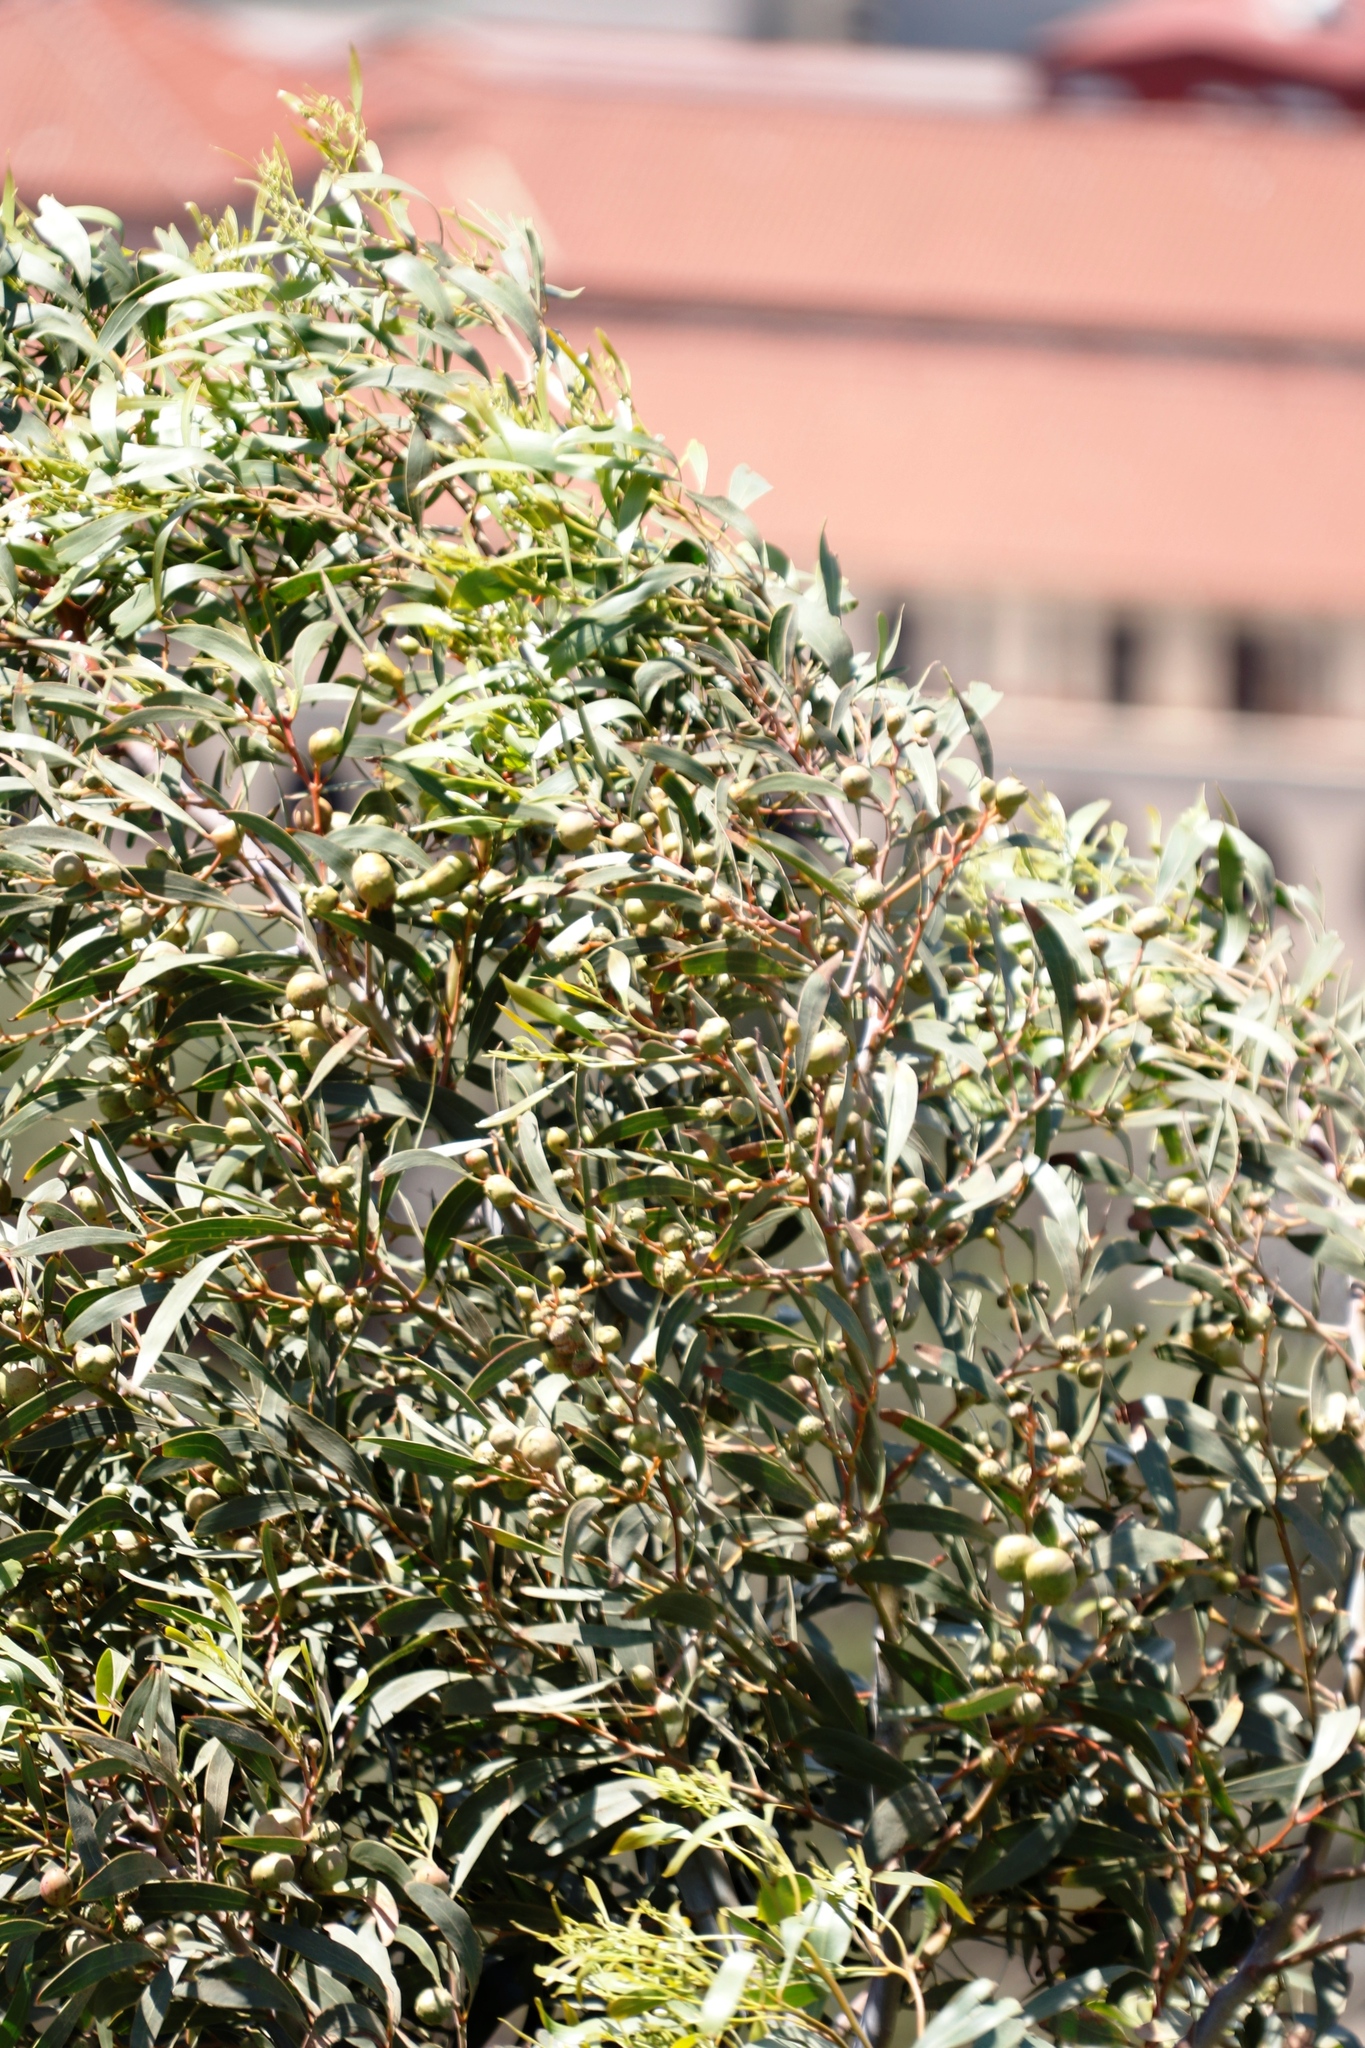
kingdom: Animalia
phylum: Arthropoda
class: Insecta
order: Hymenoptera
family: Pteromalidae
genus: Trichilogaster
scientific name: Trichilogaster signiventris
